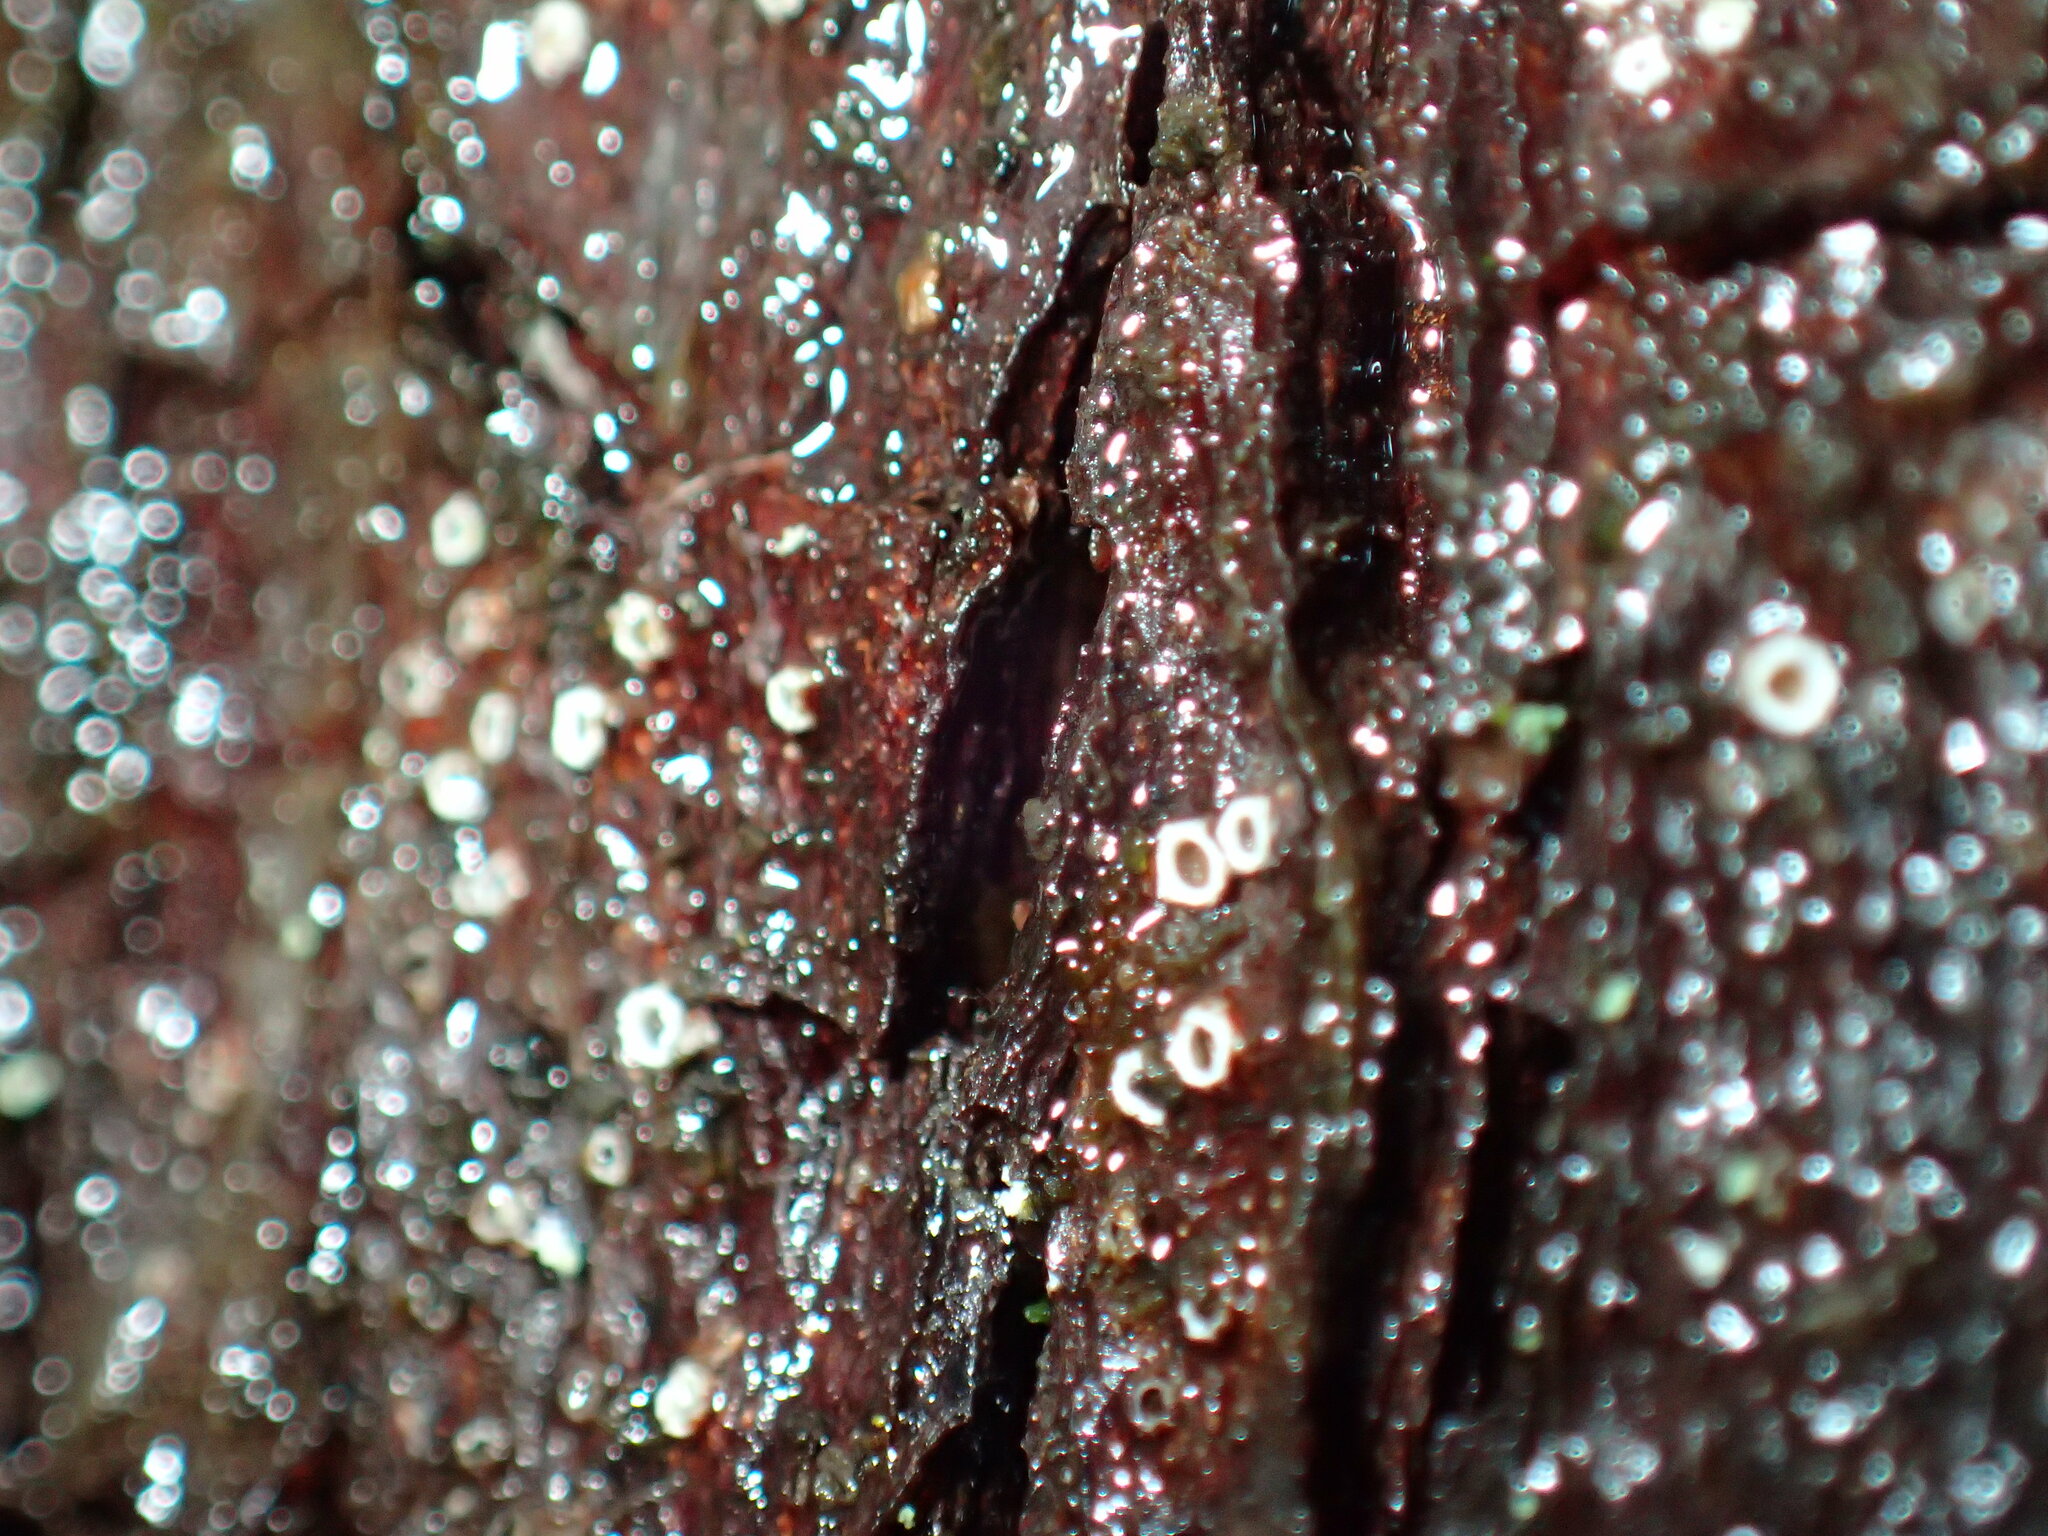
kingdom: Fungi
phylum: Ascomycota
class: Lecanoromycetes
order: Ostropales
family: Stictidaceae
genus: Stictis
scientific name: Stictis radiata
